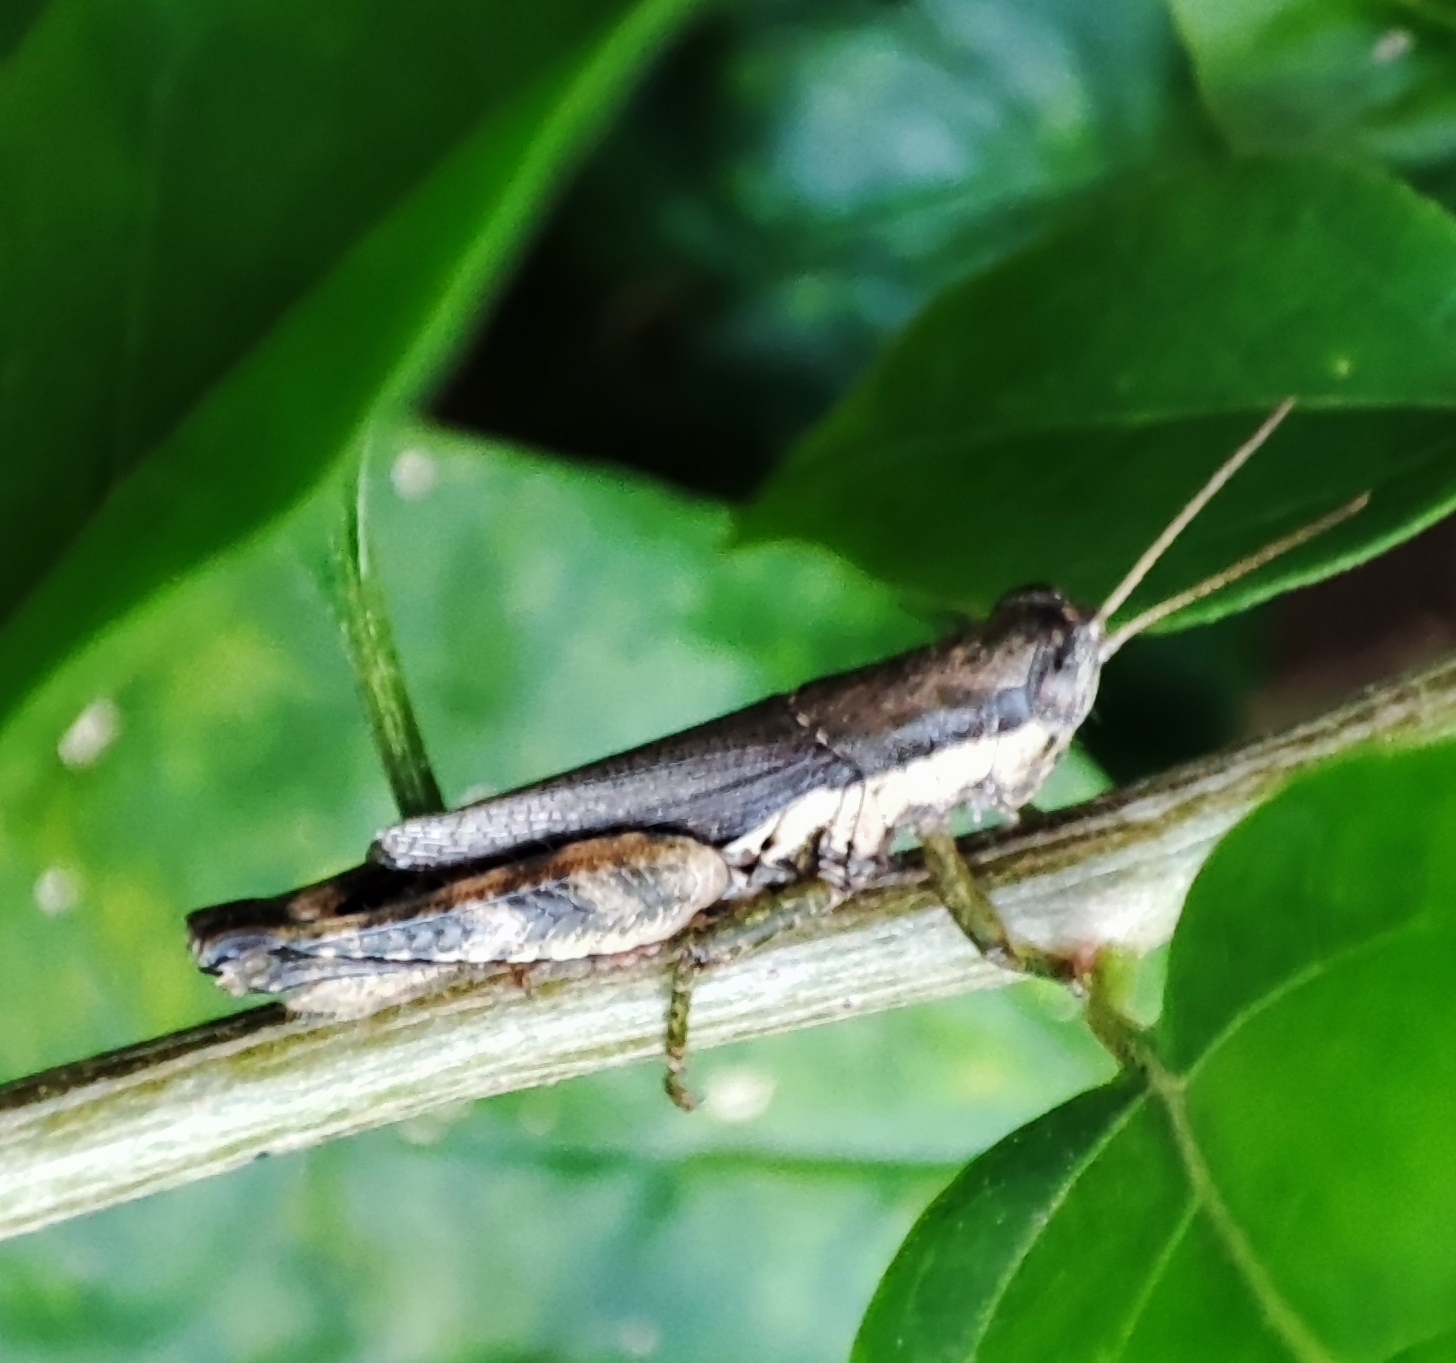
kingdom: Animalia
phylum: Arthropoda
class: Insecta
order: Orthoptera
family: Acrididae
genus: Pseudoxya
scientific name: Pseudoxya diminuta
